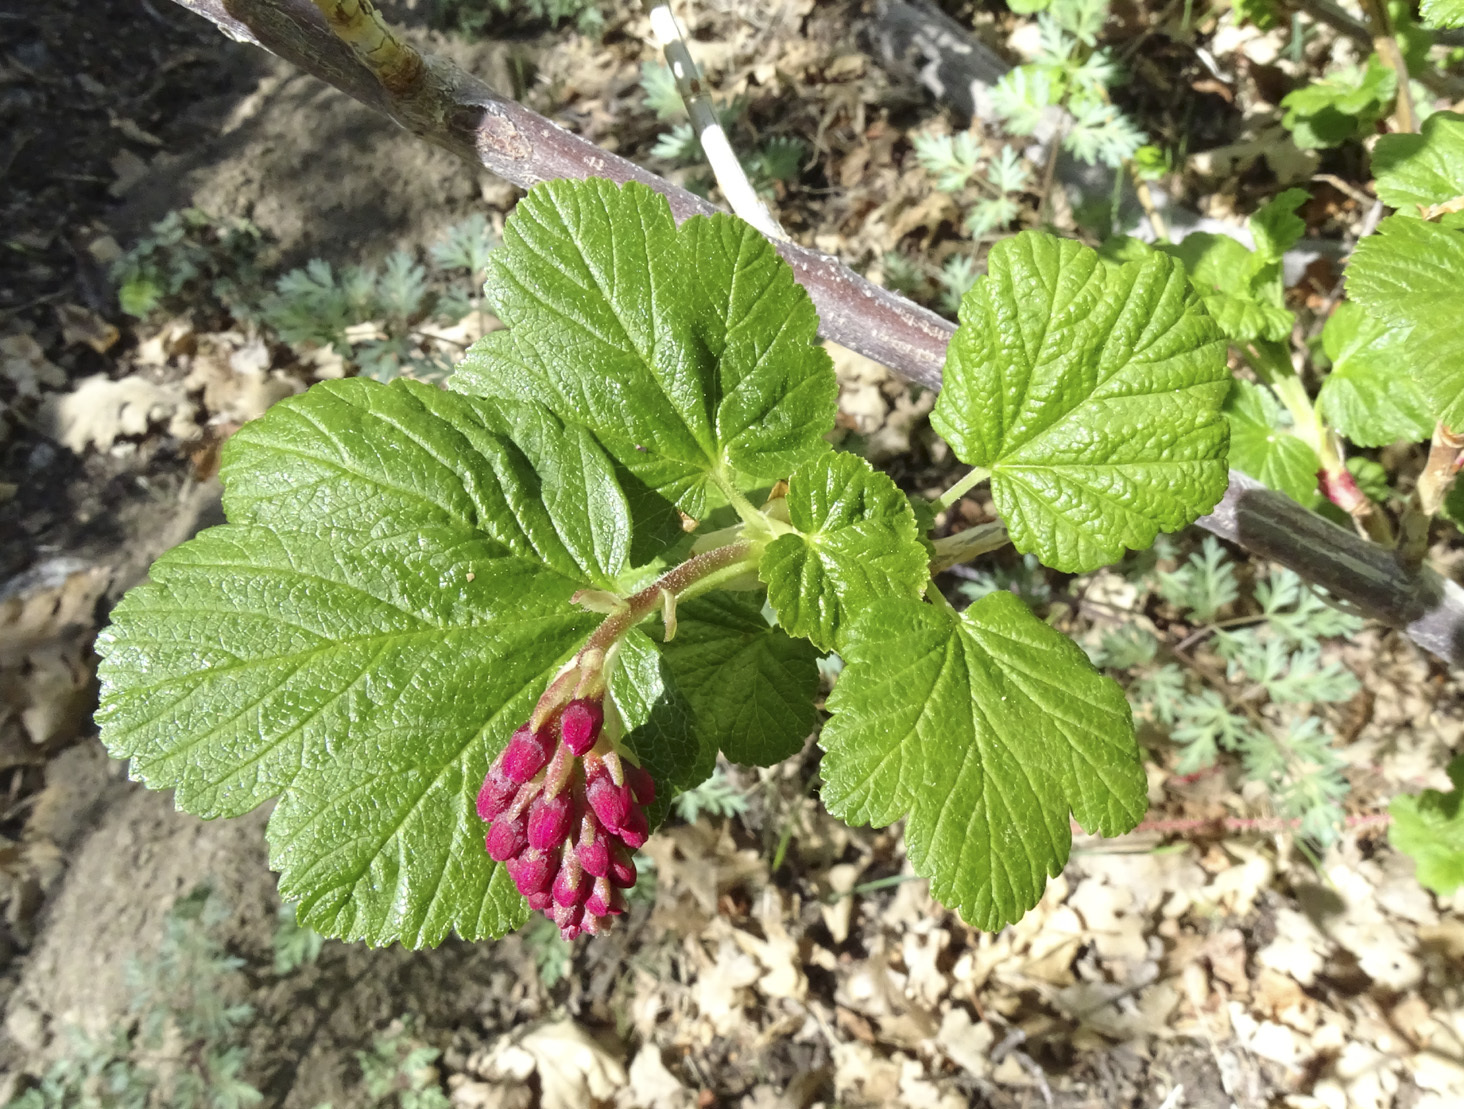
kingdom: Plantae
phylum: Tracheophyta
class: Magnoliopsida
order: Saxifragales
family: Grossulariaceae
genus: Ribes
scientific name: Ribes nevadense
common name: Mountain pink currant
